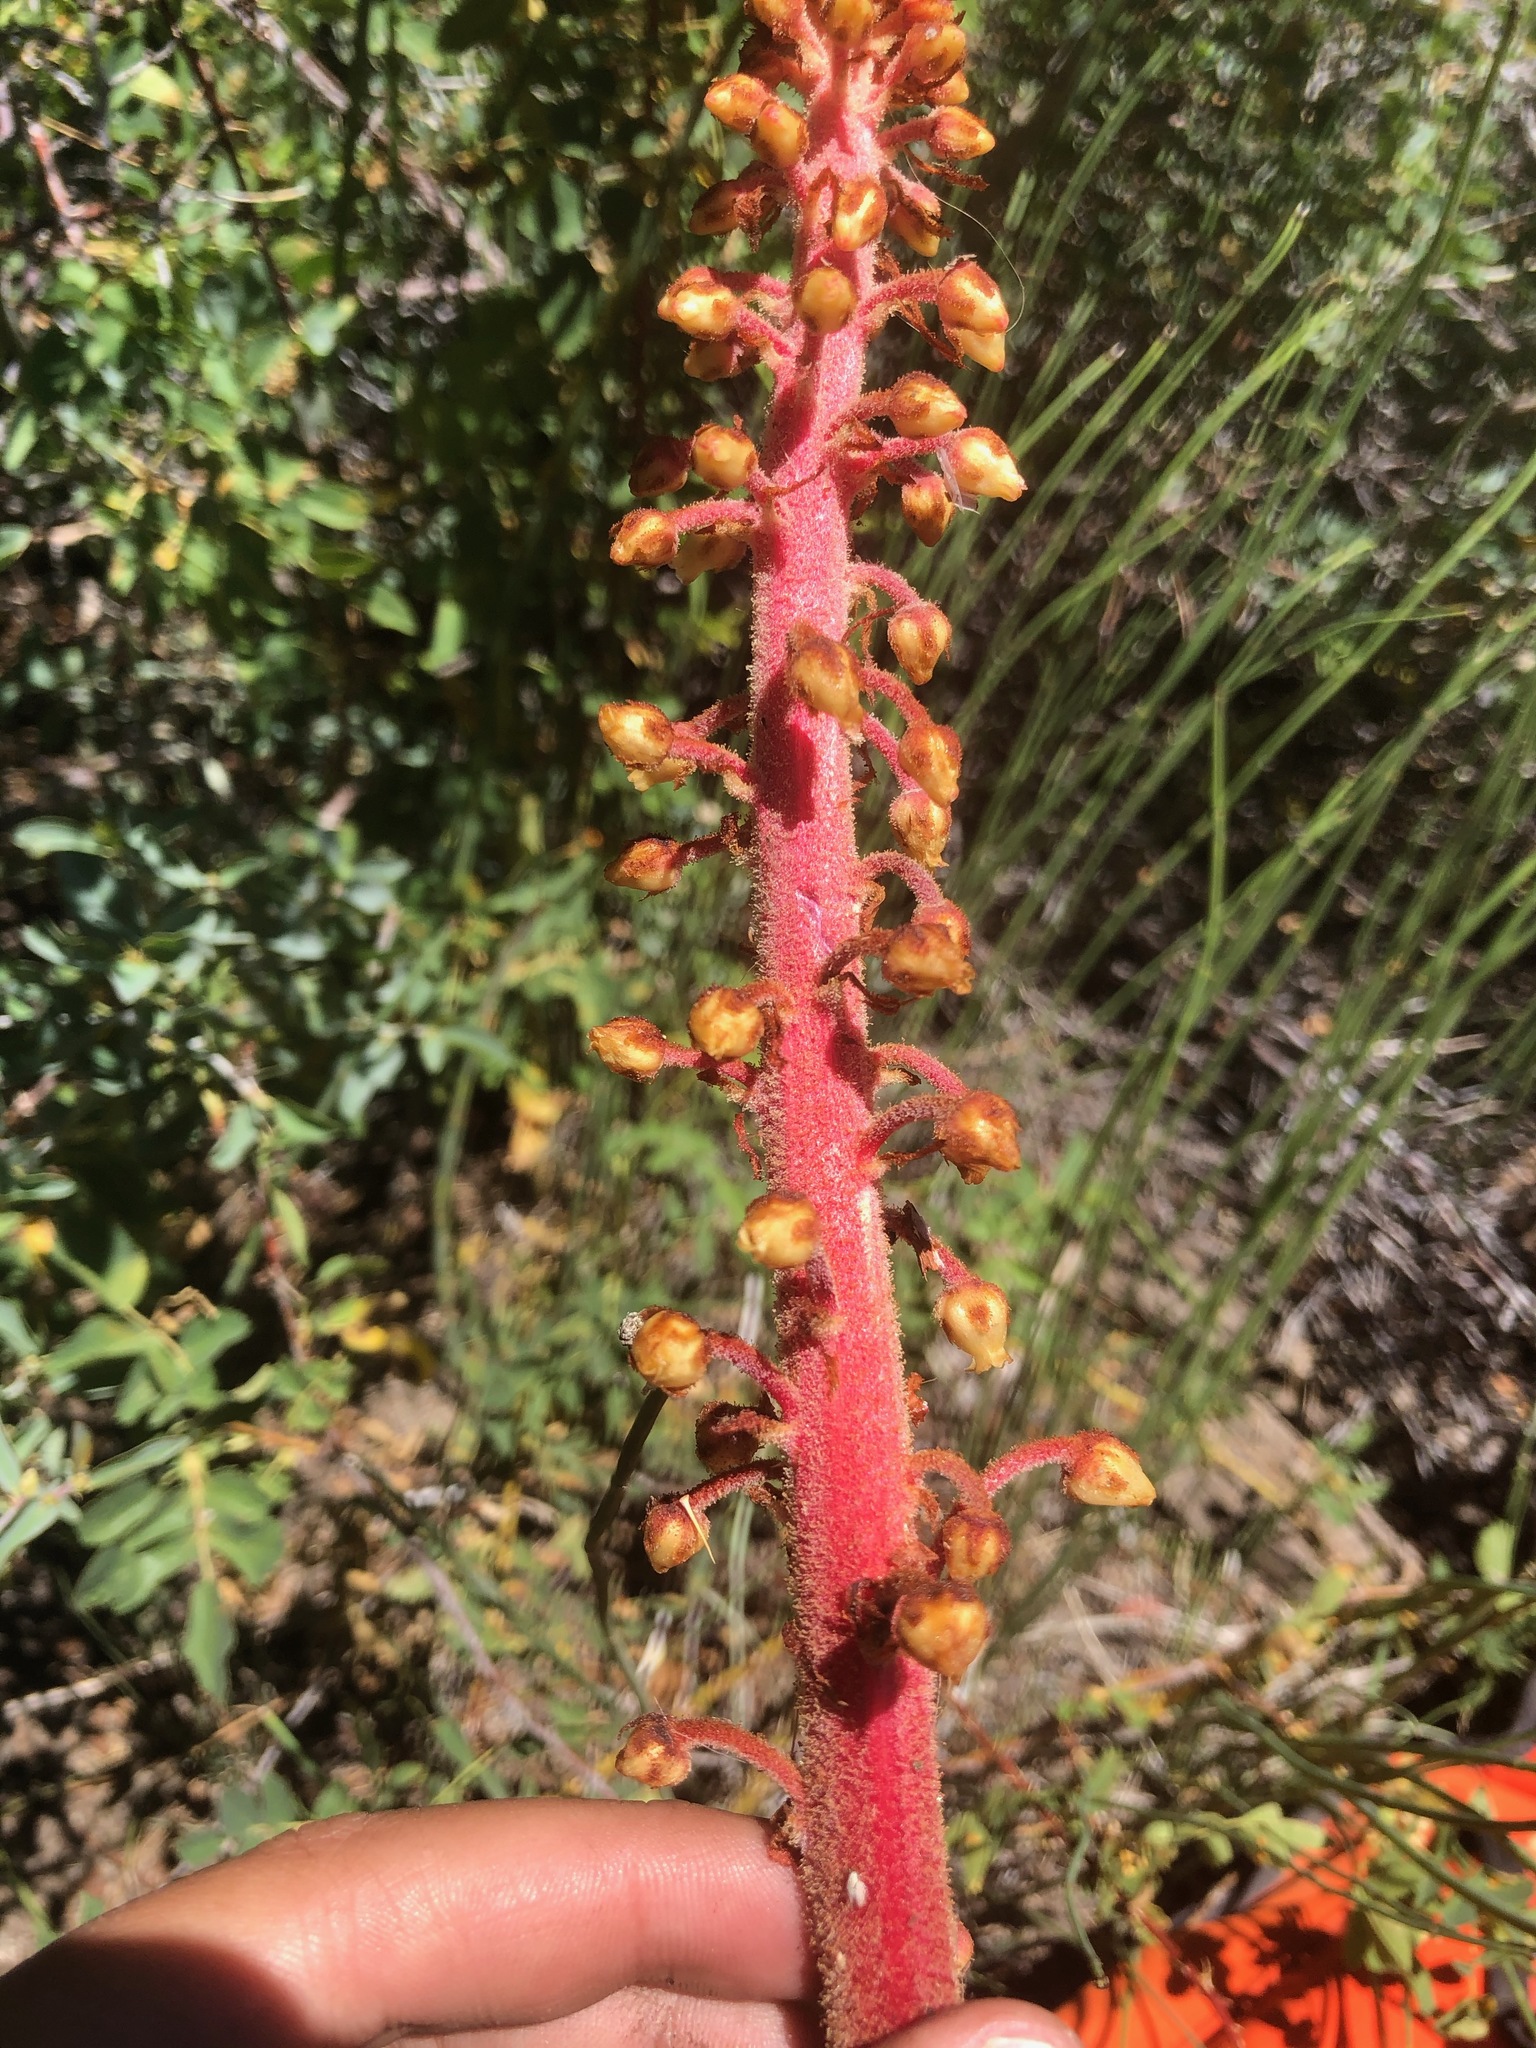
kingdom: Plantae
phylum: Tracheophyta
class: Magnoliopsida
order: Ericales
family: Ericaceae
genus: Pterospora
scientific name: Pterospora andromedea
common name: Giant bird's-nest
